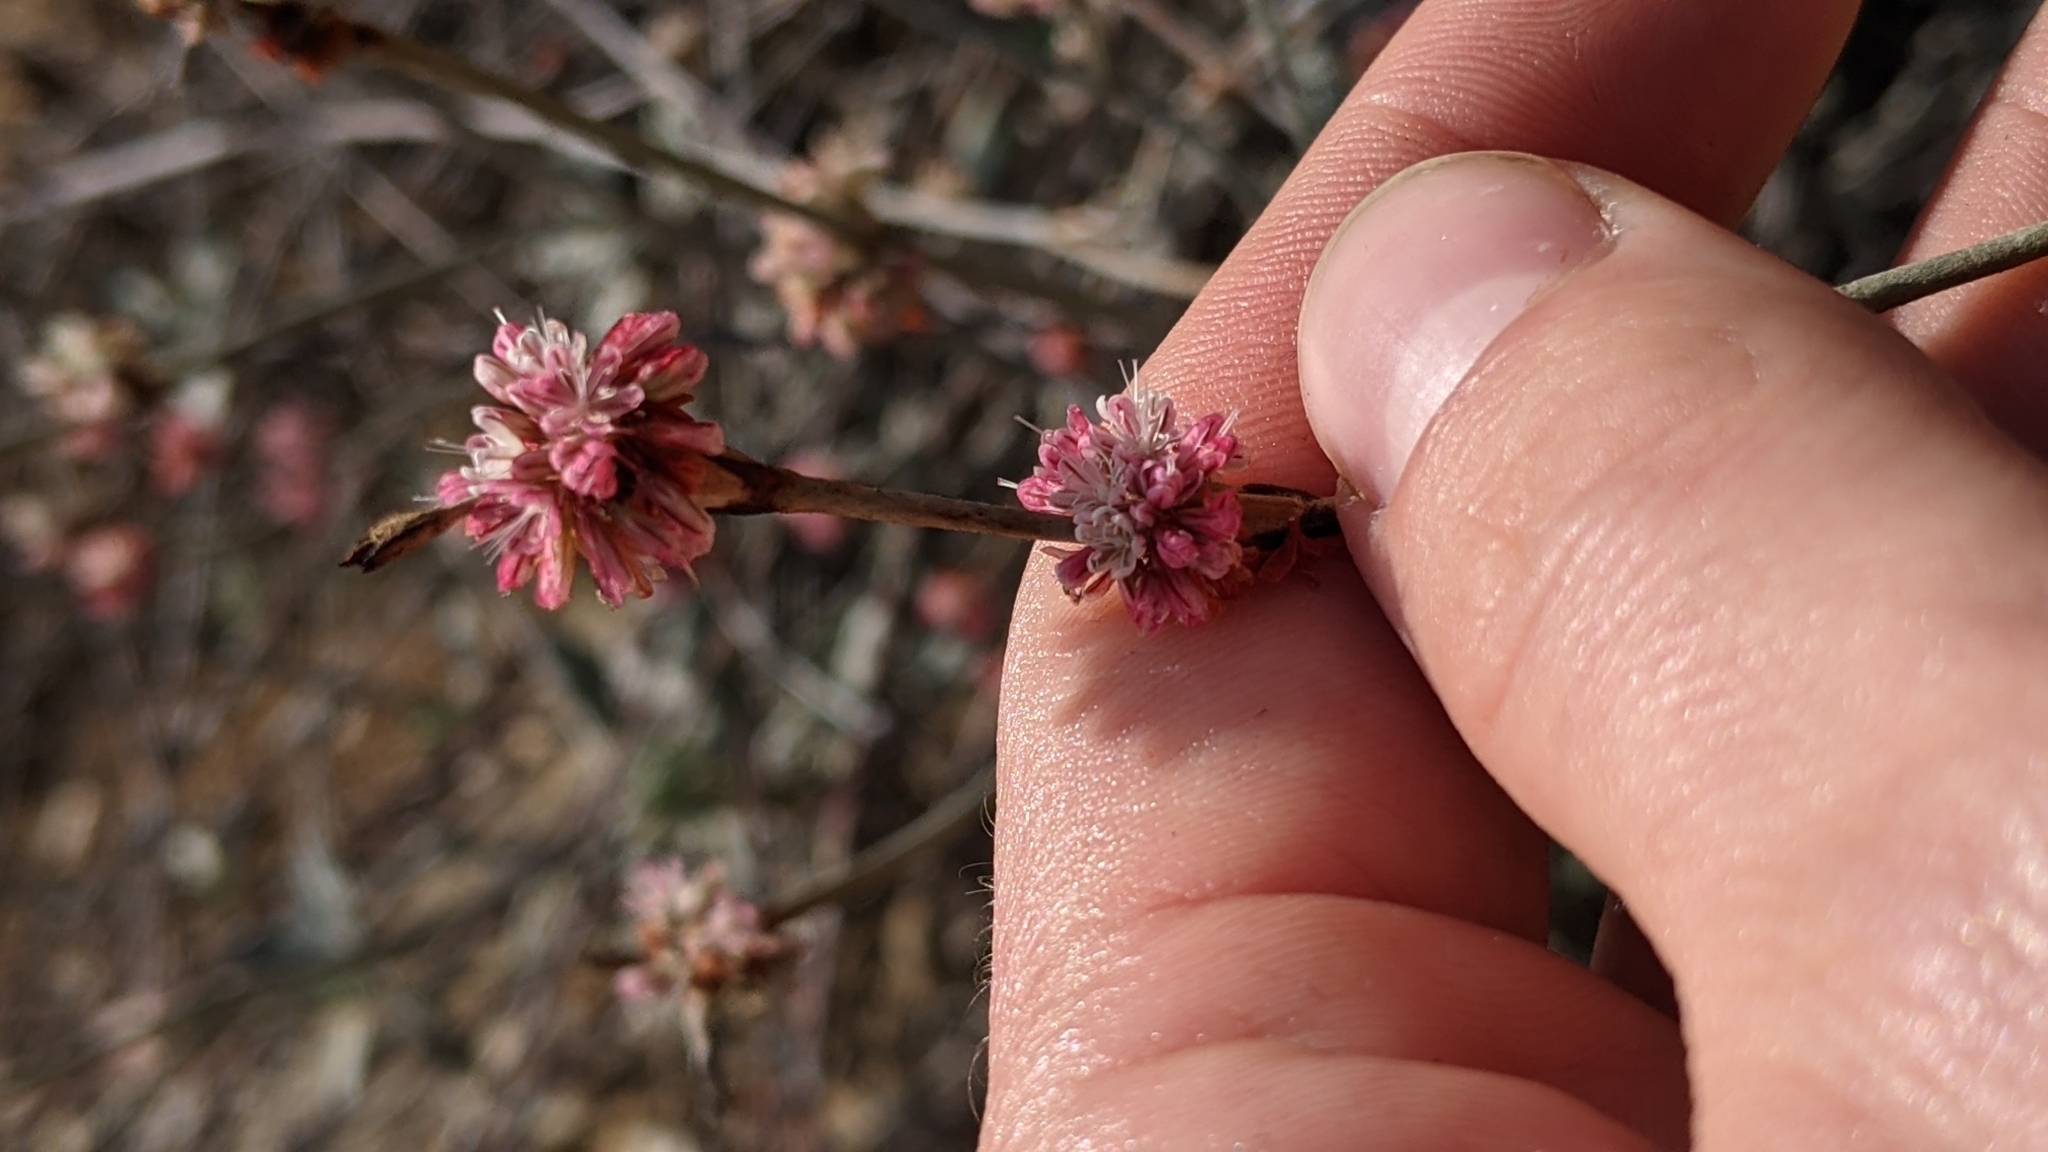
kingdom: Plantae
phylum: Tracheophyta
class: Magnoliopsida
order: Caryophyllales
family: Polygonaceae
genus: Eriogonum
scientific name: Eriogonum elongatum
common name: Long-stem wild buckwheat
